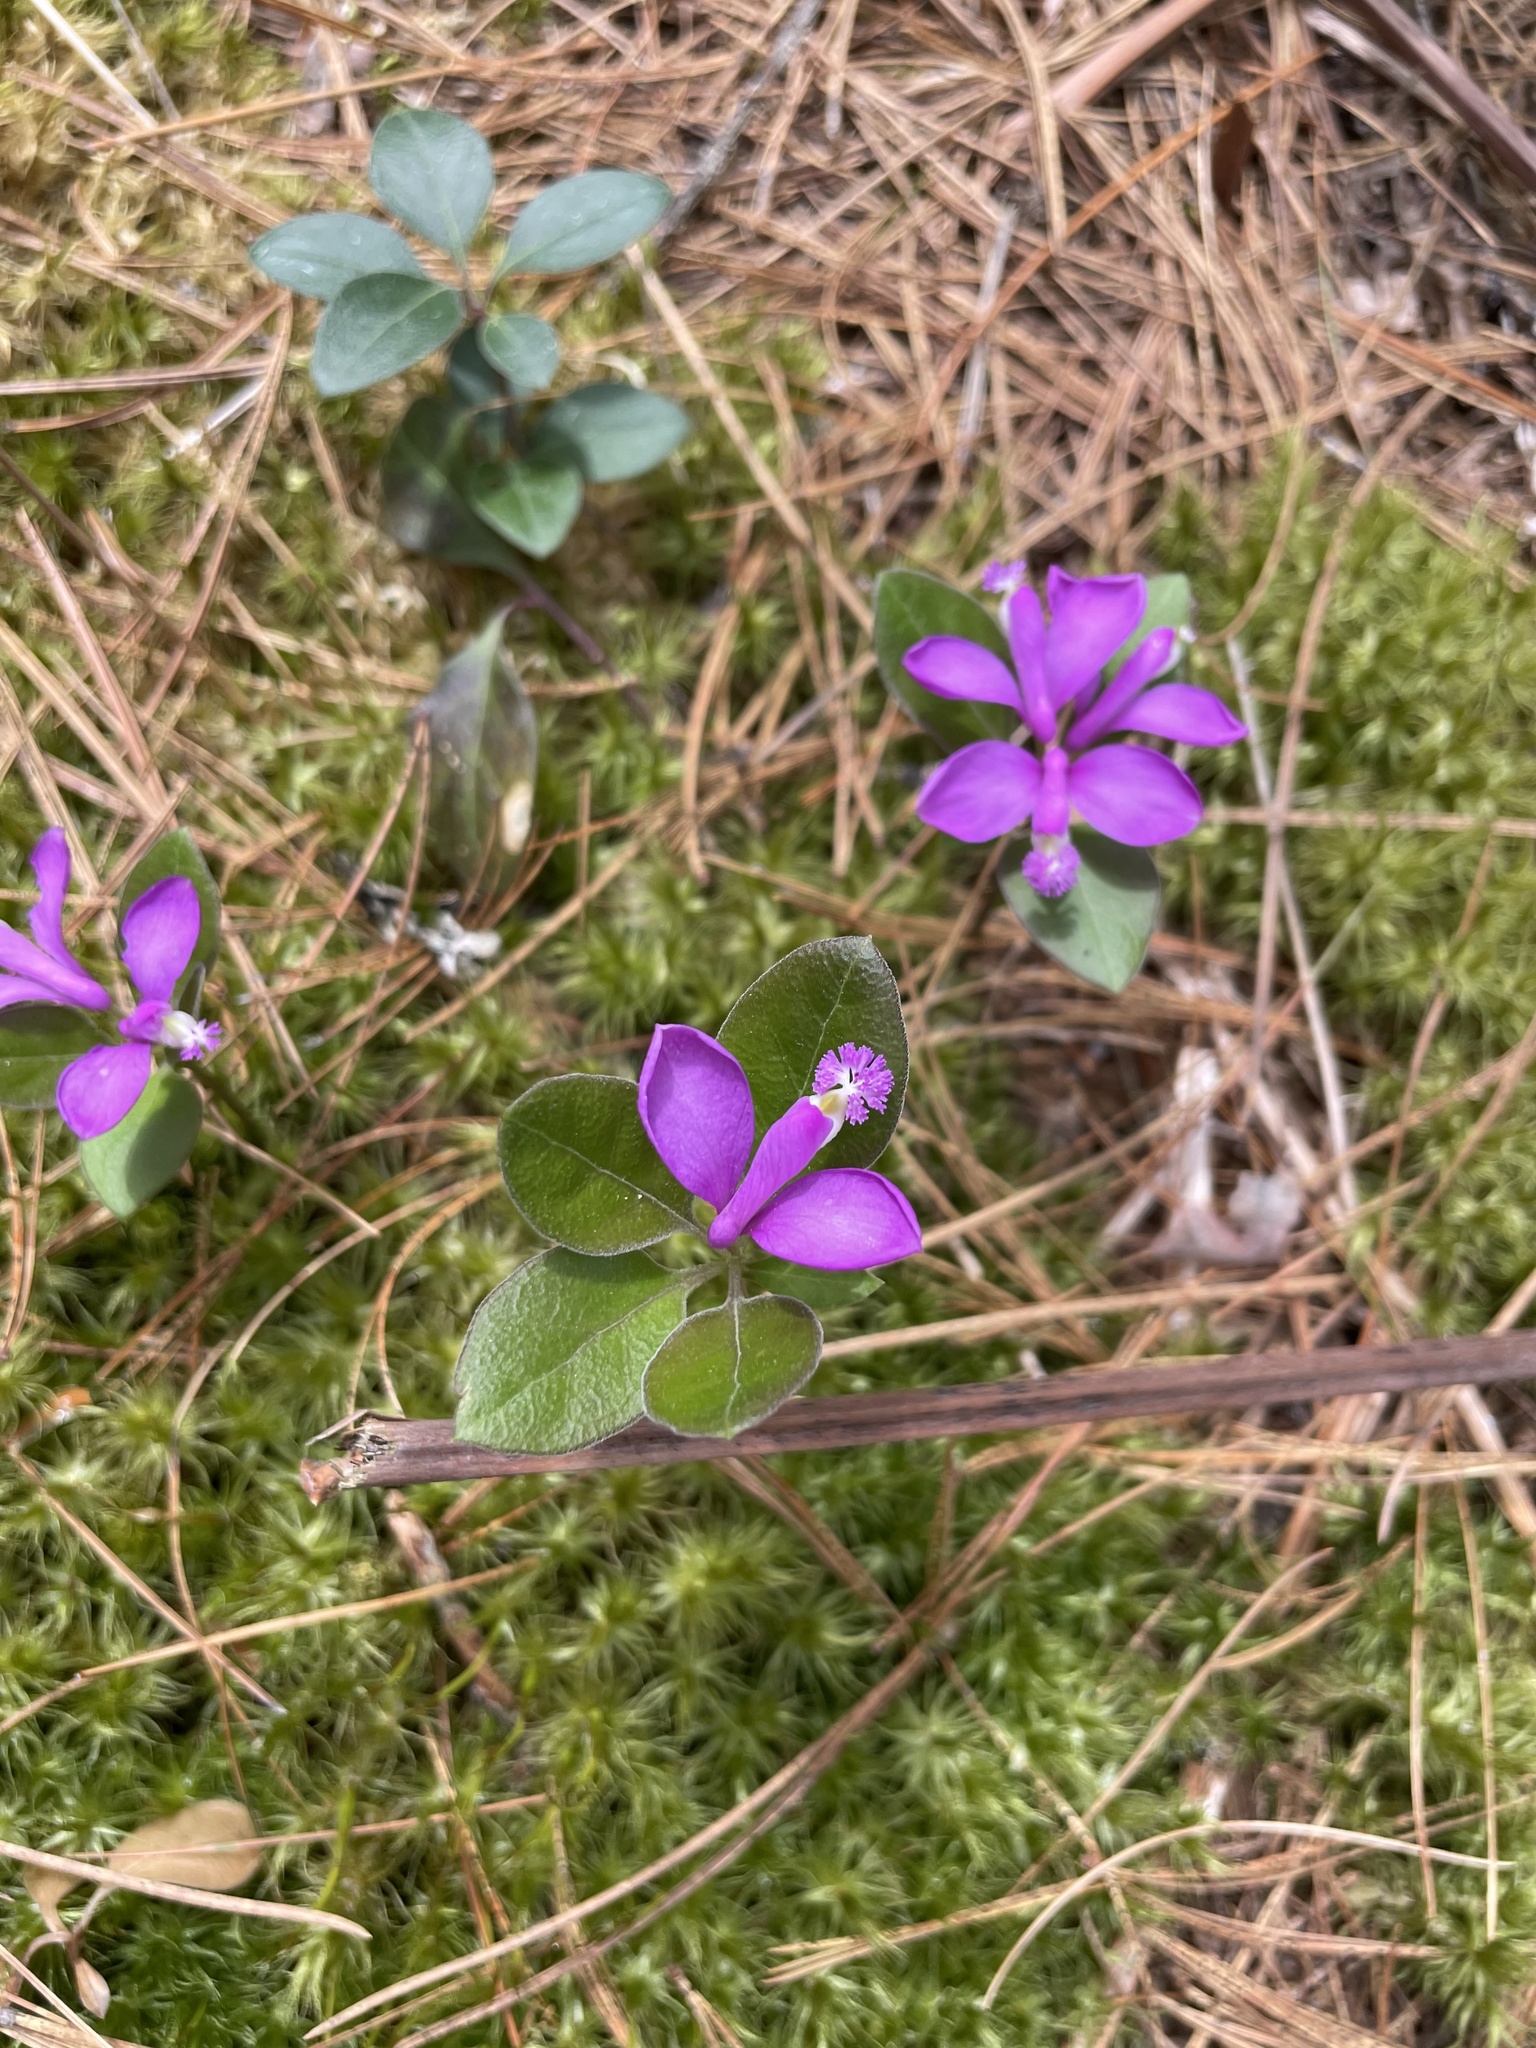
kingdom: Plantae
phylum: Tracheophyta
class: Magnoliopsida
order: Fabales
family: Polygalaceae
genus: Polygaloides
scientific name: Polygaloides paucifolia
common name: Bird-on-the-wing
